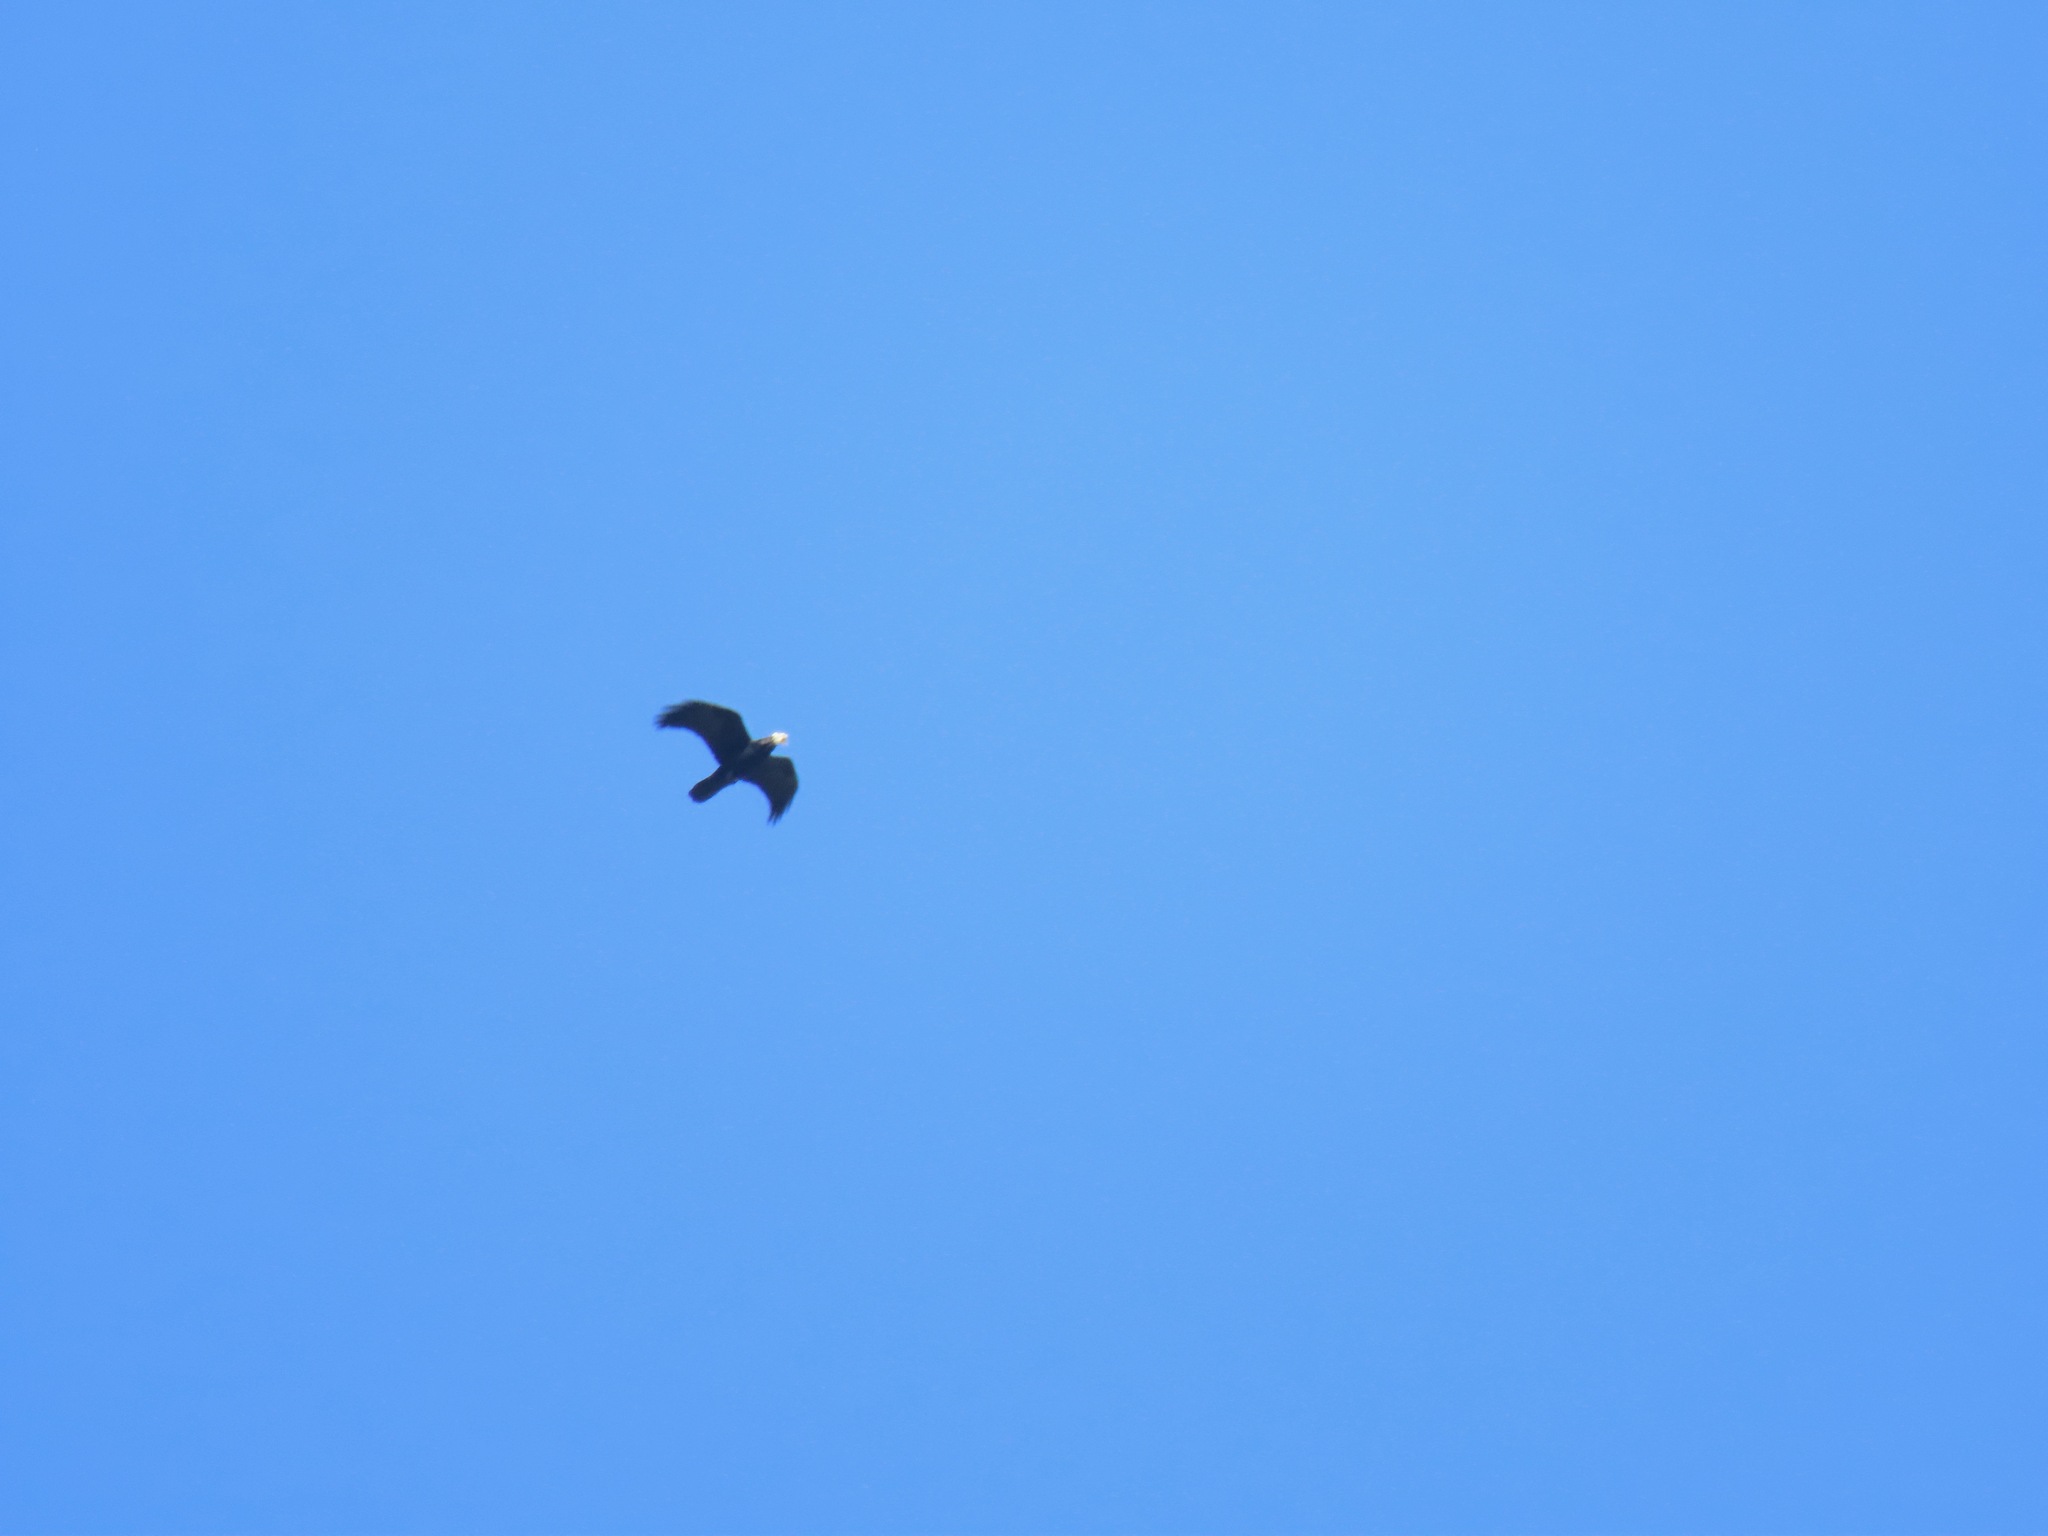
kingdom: Animalia
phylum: Chordata
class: Aves
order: Passeriformes
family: Corvidae
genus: Corvus
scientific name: Corvus corax
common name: Common raven
